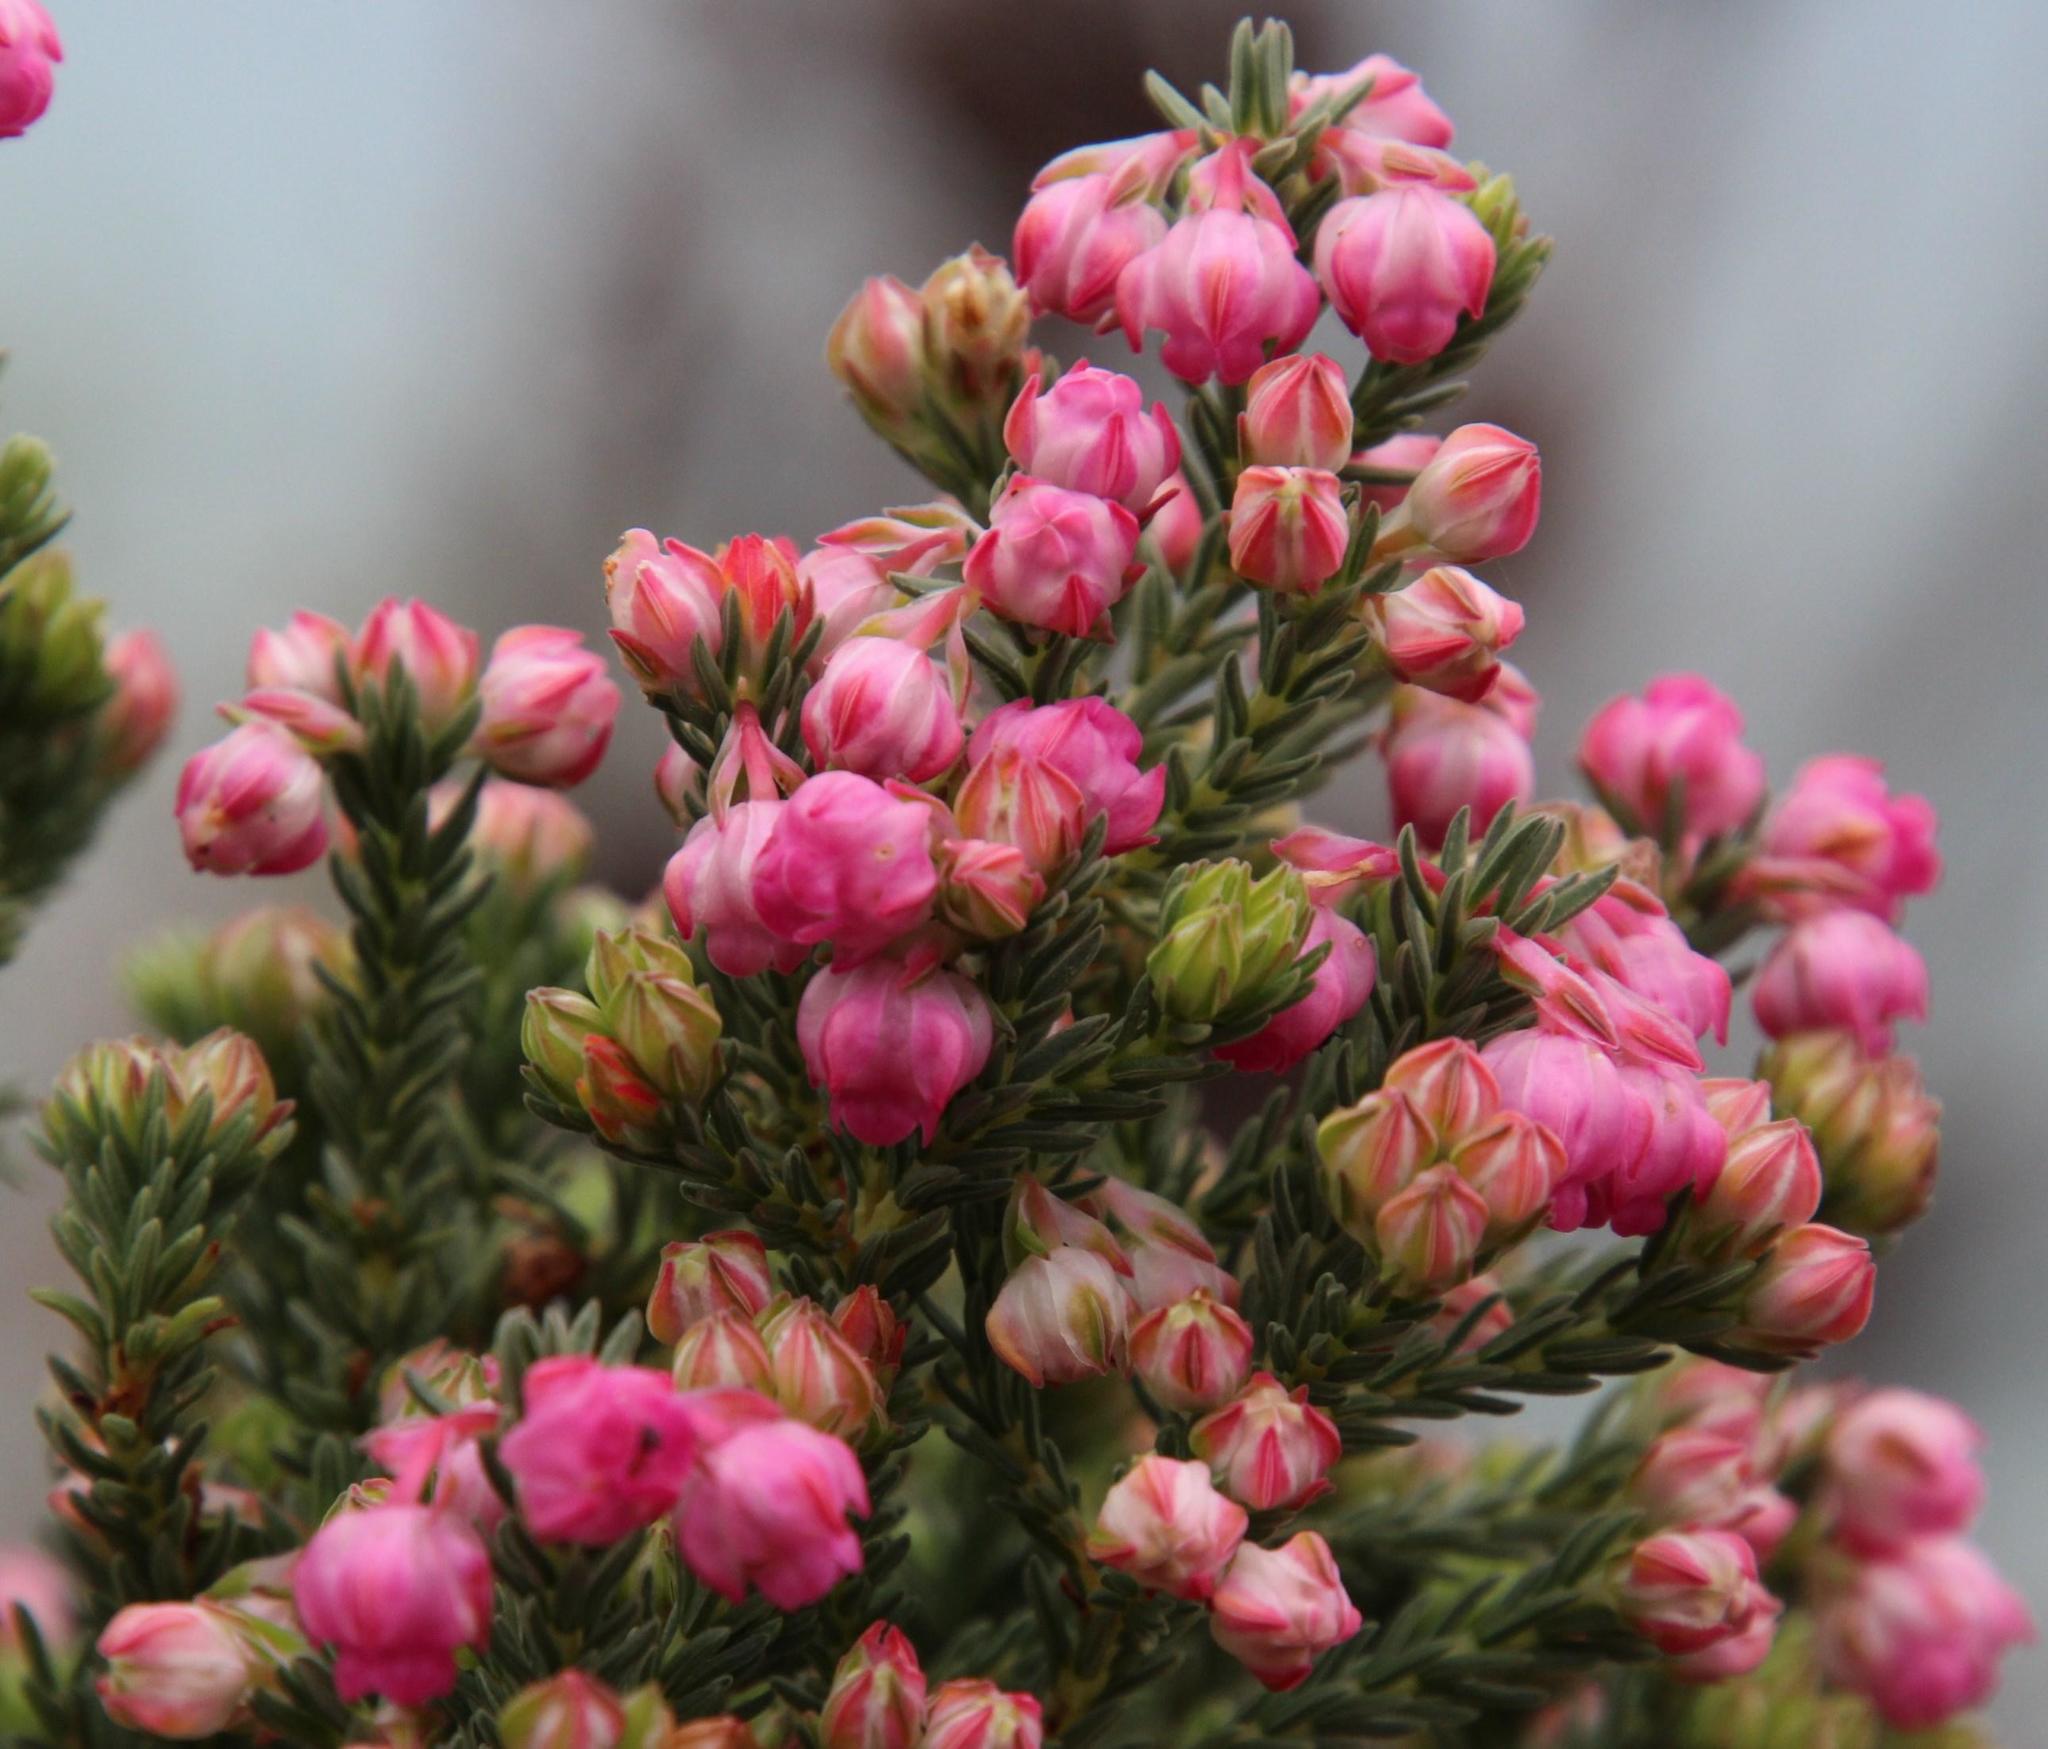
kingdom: Plantae
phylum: Tracheophyta
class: Magnoliopsida
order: Ericales
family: Ericaceae
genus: Erica
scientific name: Erica baccans
